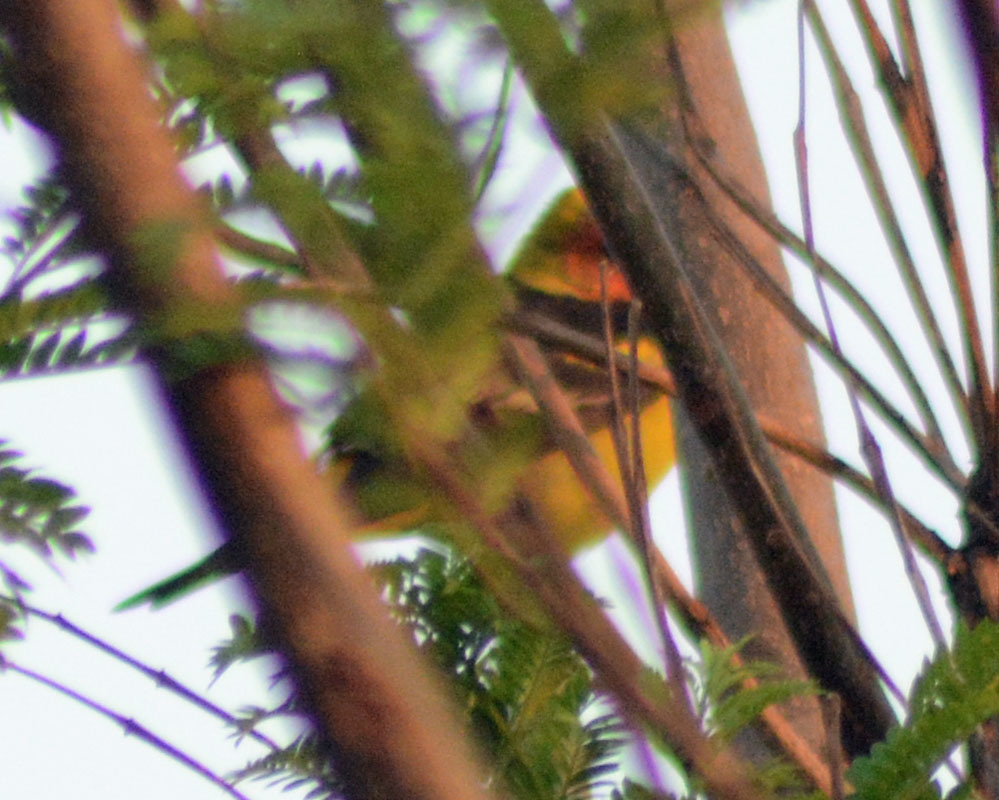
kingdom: Animalia
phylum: Chordata
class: Aves
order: Passeriformes
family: Cardinalidae
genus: Piranga
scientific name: Piranga ludoviciana
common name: Western tanager
